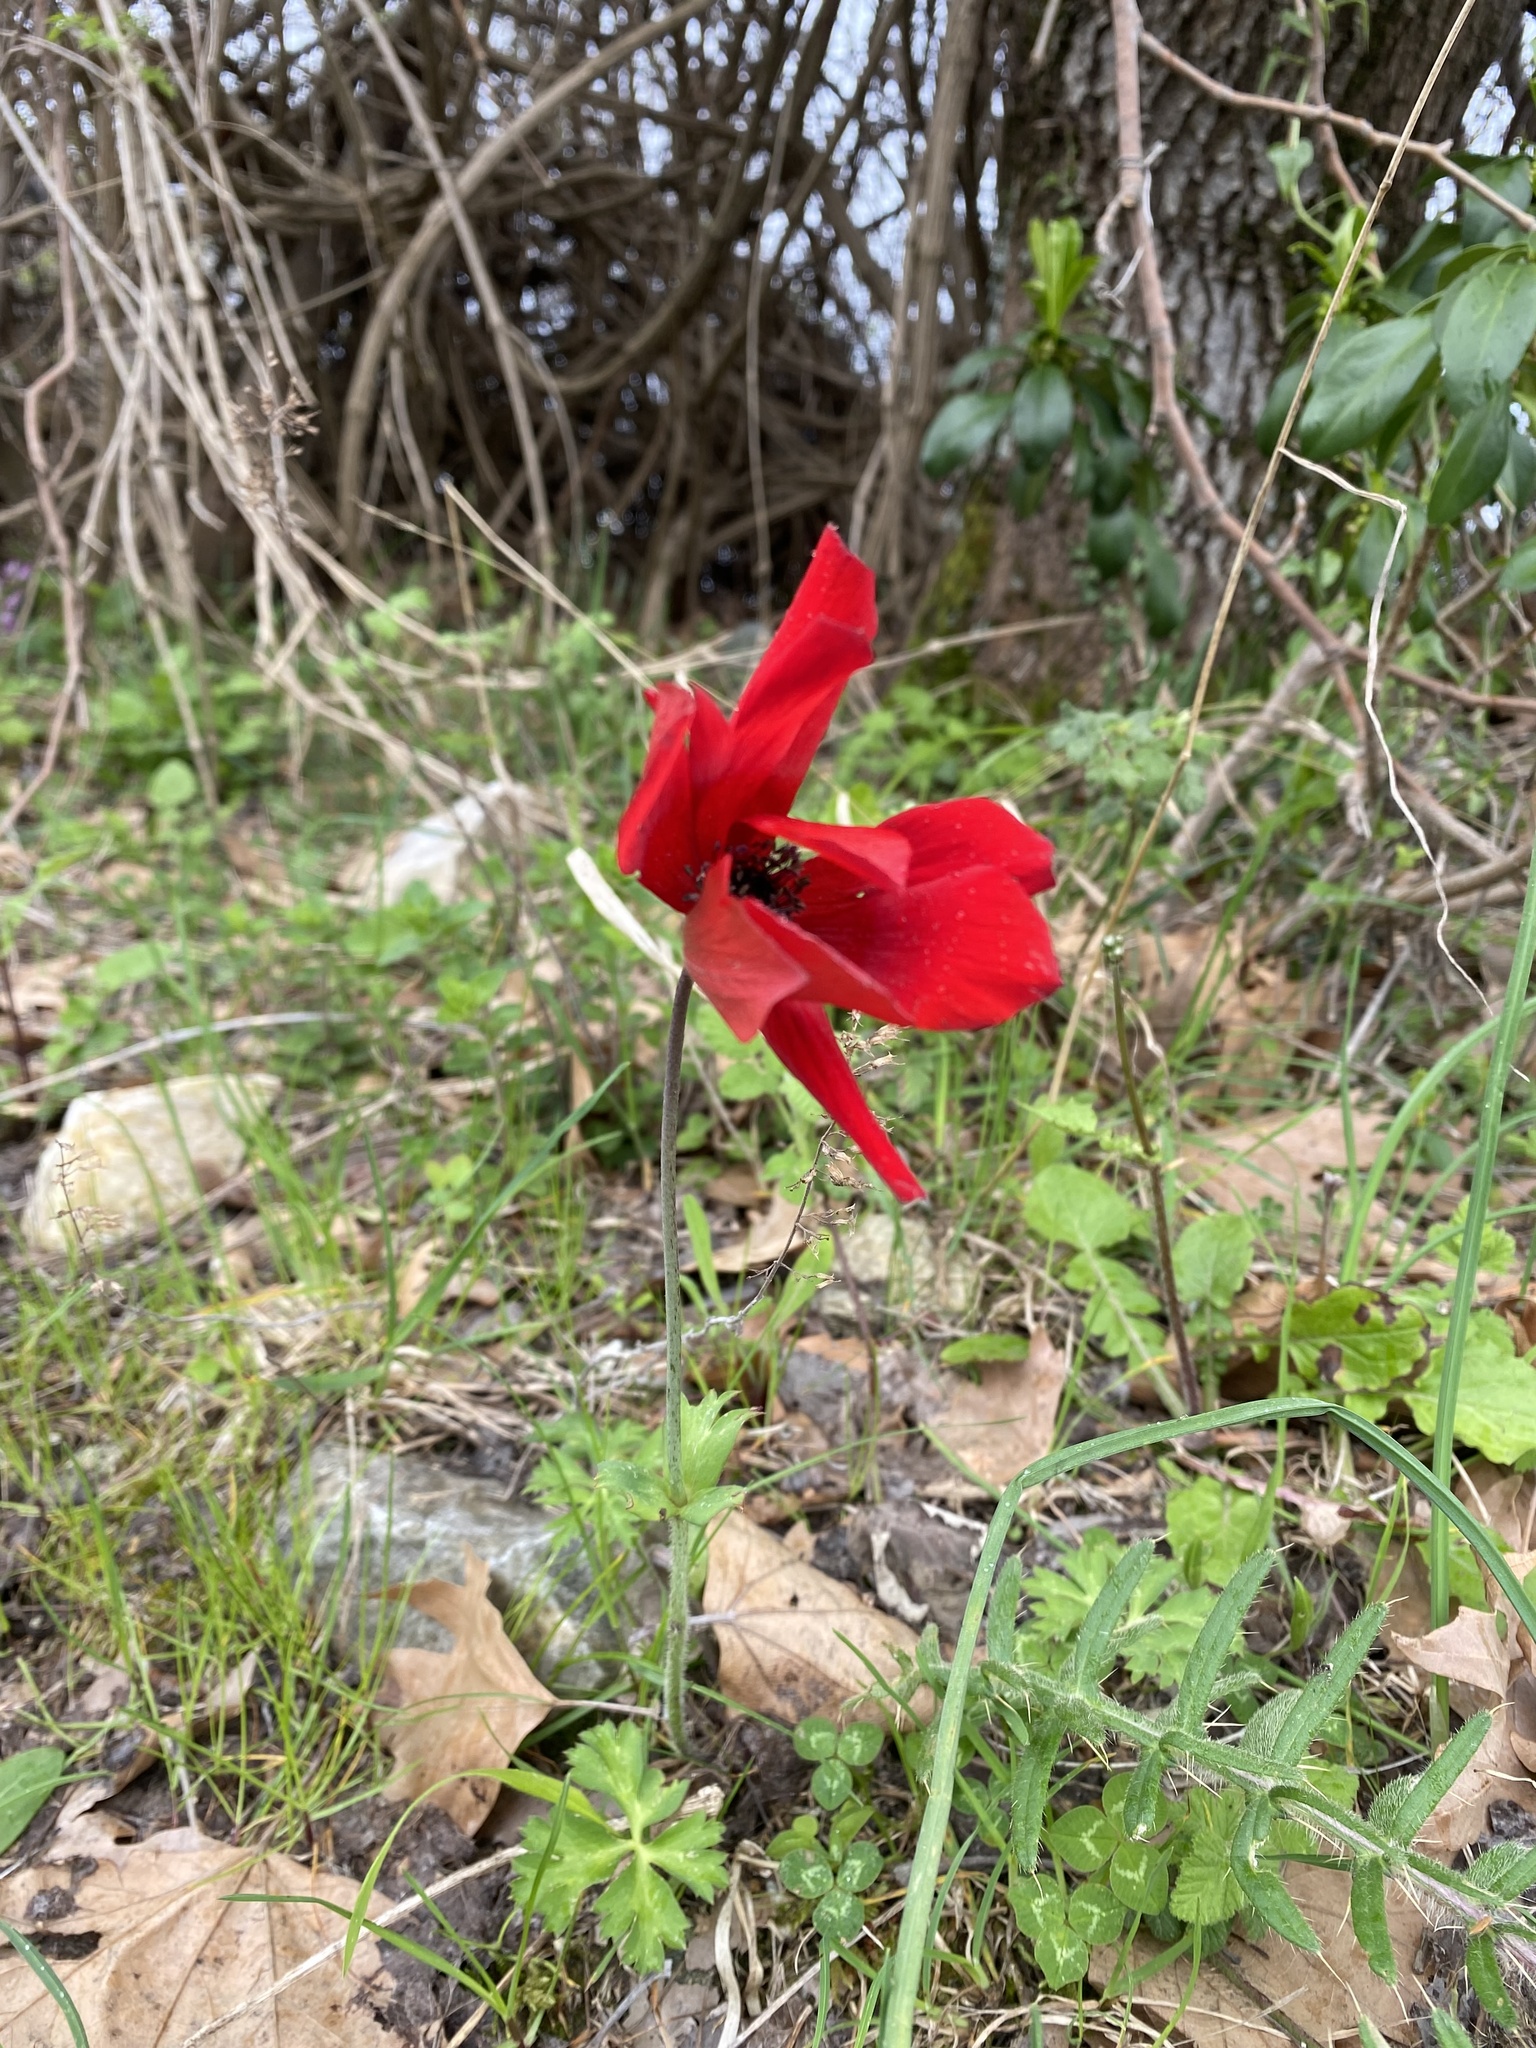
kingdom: Plantae
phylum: Tracheophyta
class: Magnoliopsida
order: Ranunculales
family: Ranunculaceae
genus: Anemone
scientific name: Anemone pavonina
